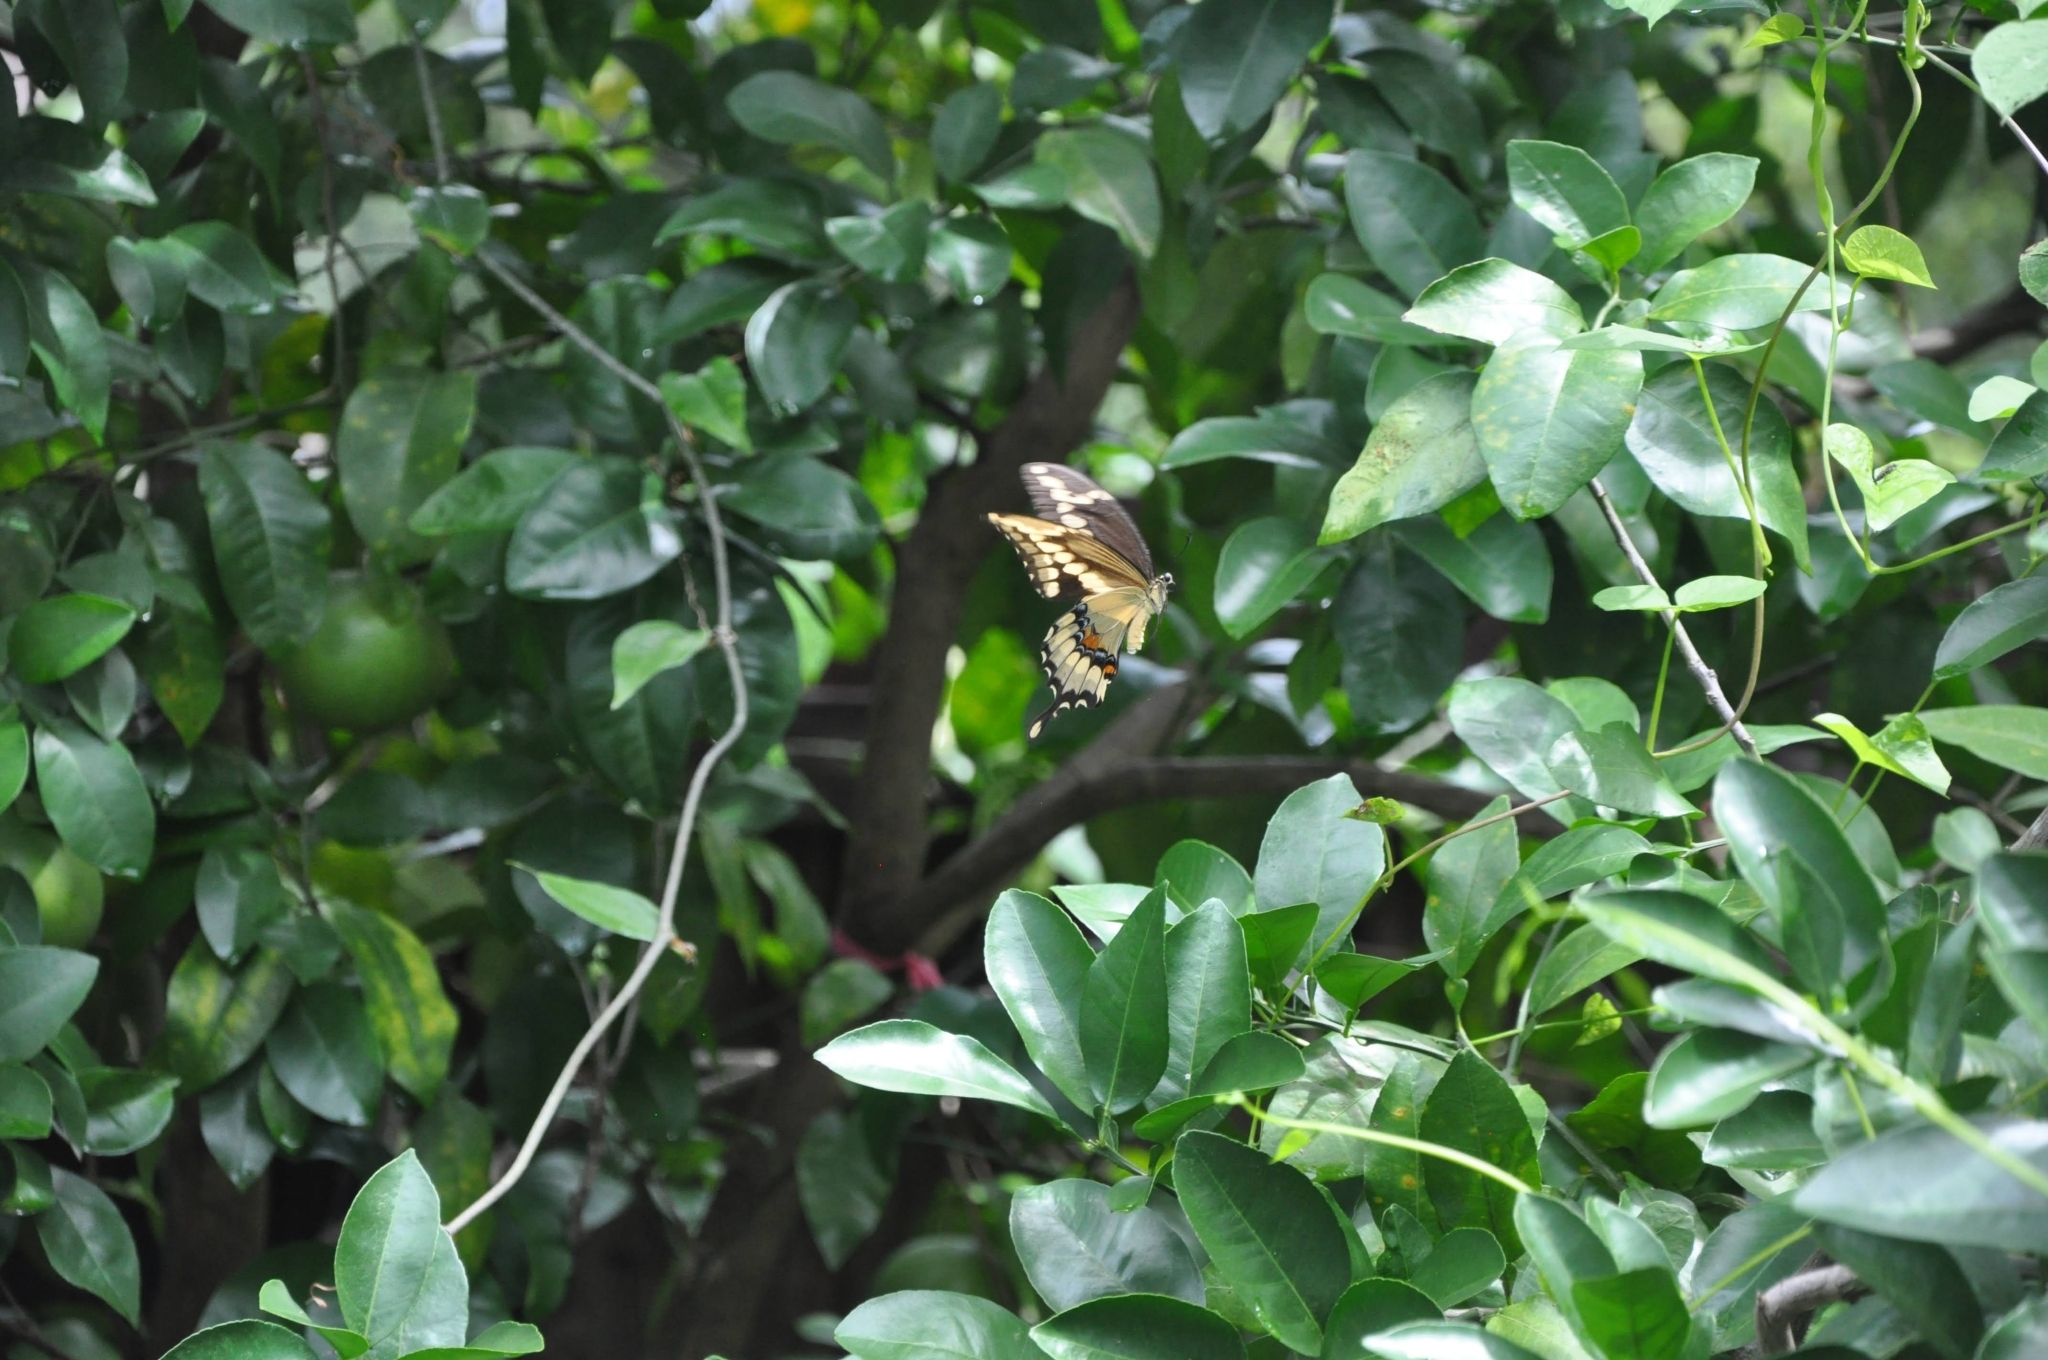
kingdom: Animalia
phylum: Arthropoda
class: Insecta
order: Lepidoptera
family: Papilionidae
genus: Papilio
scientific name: Papilio cresphontes
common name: Giant swallowtail
